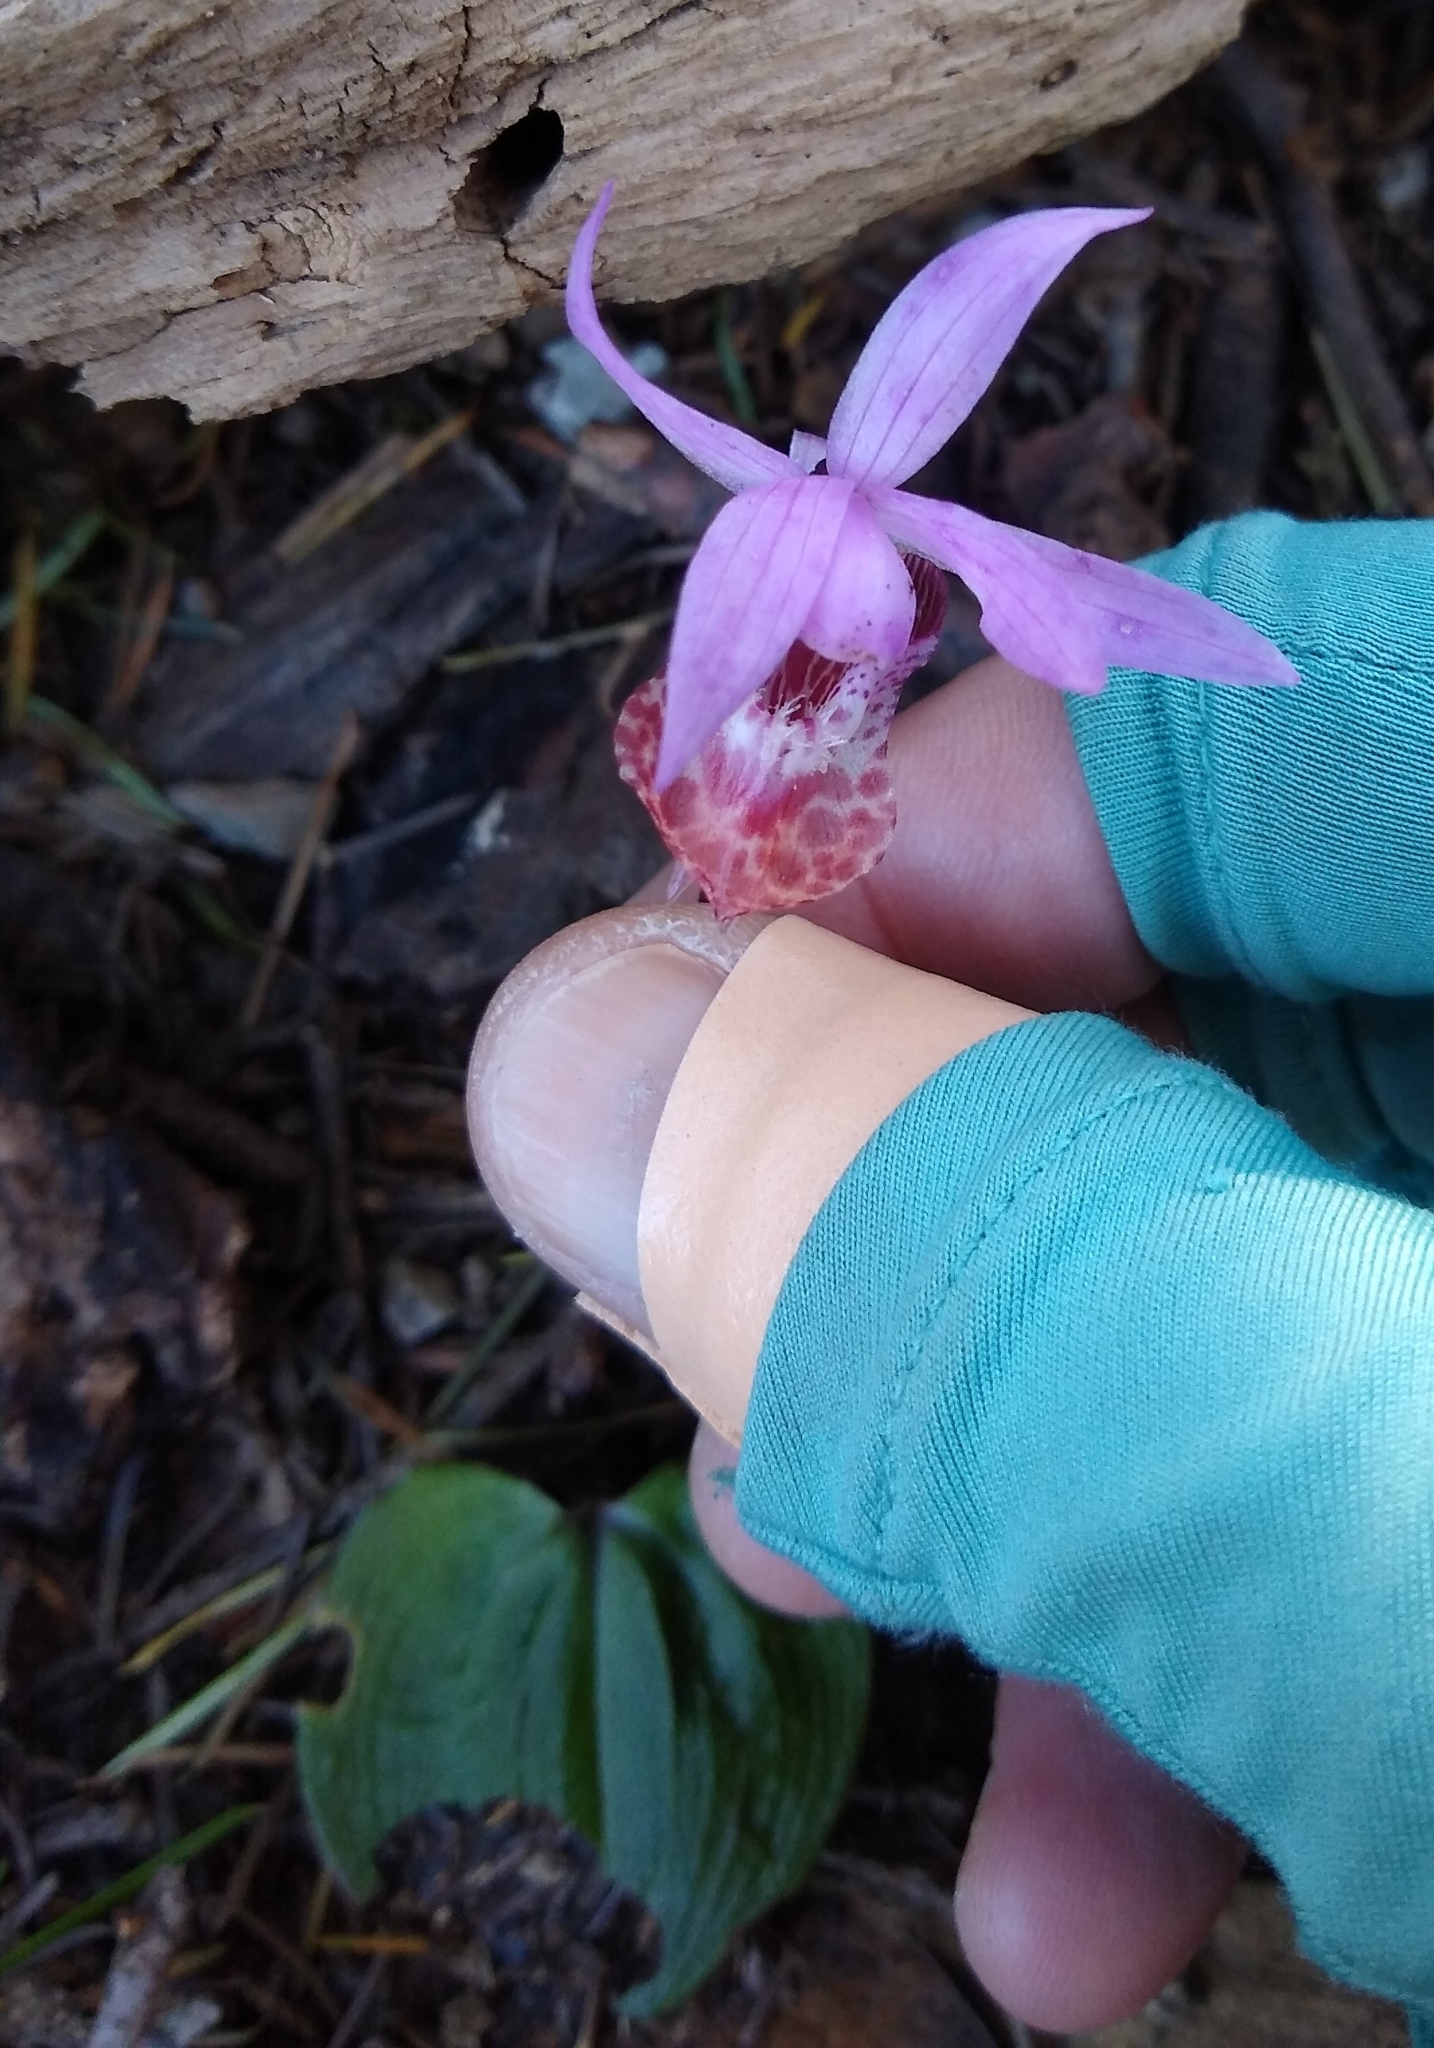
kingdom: Plantae
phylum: Tracheophyta
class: Liliopsida
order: Asparagales
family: Orchidaceae
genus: Calypso
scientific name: Calypso bulbosa
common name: Calypso
